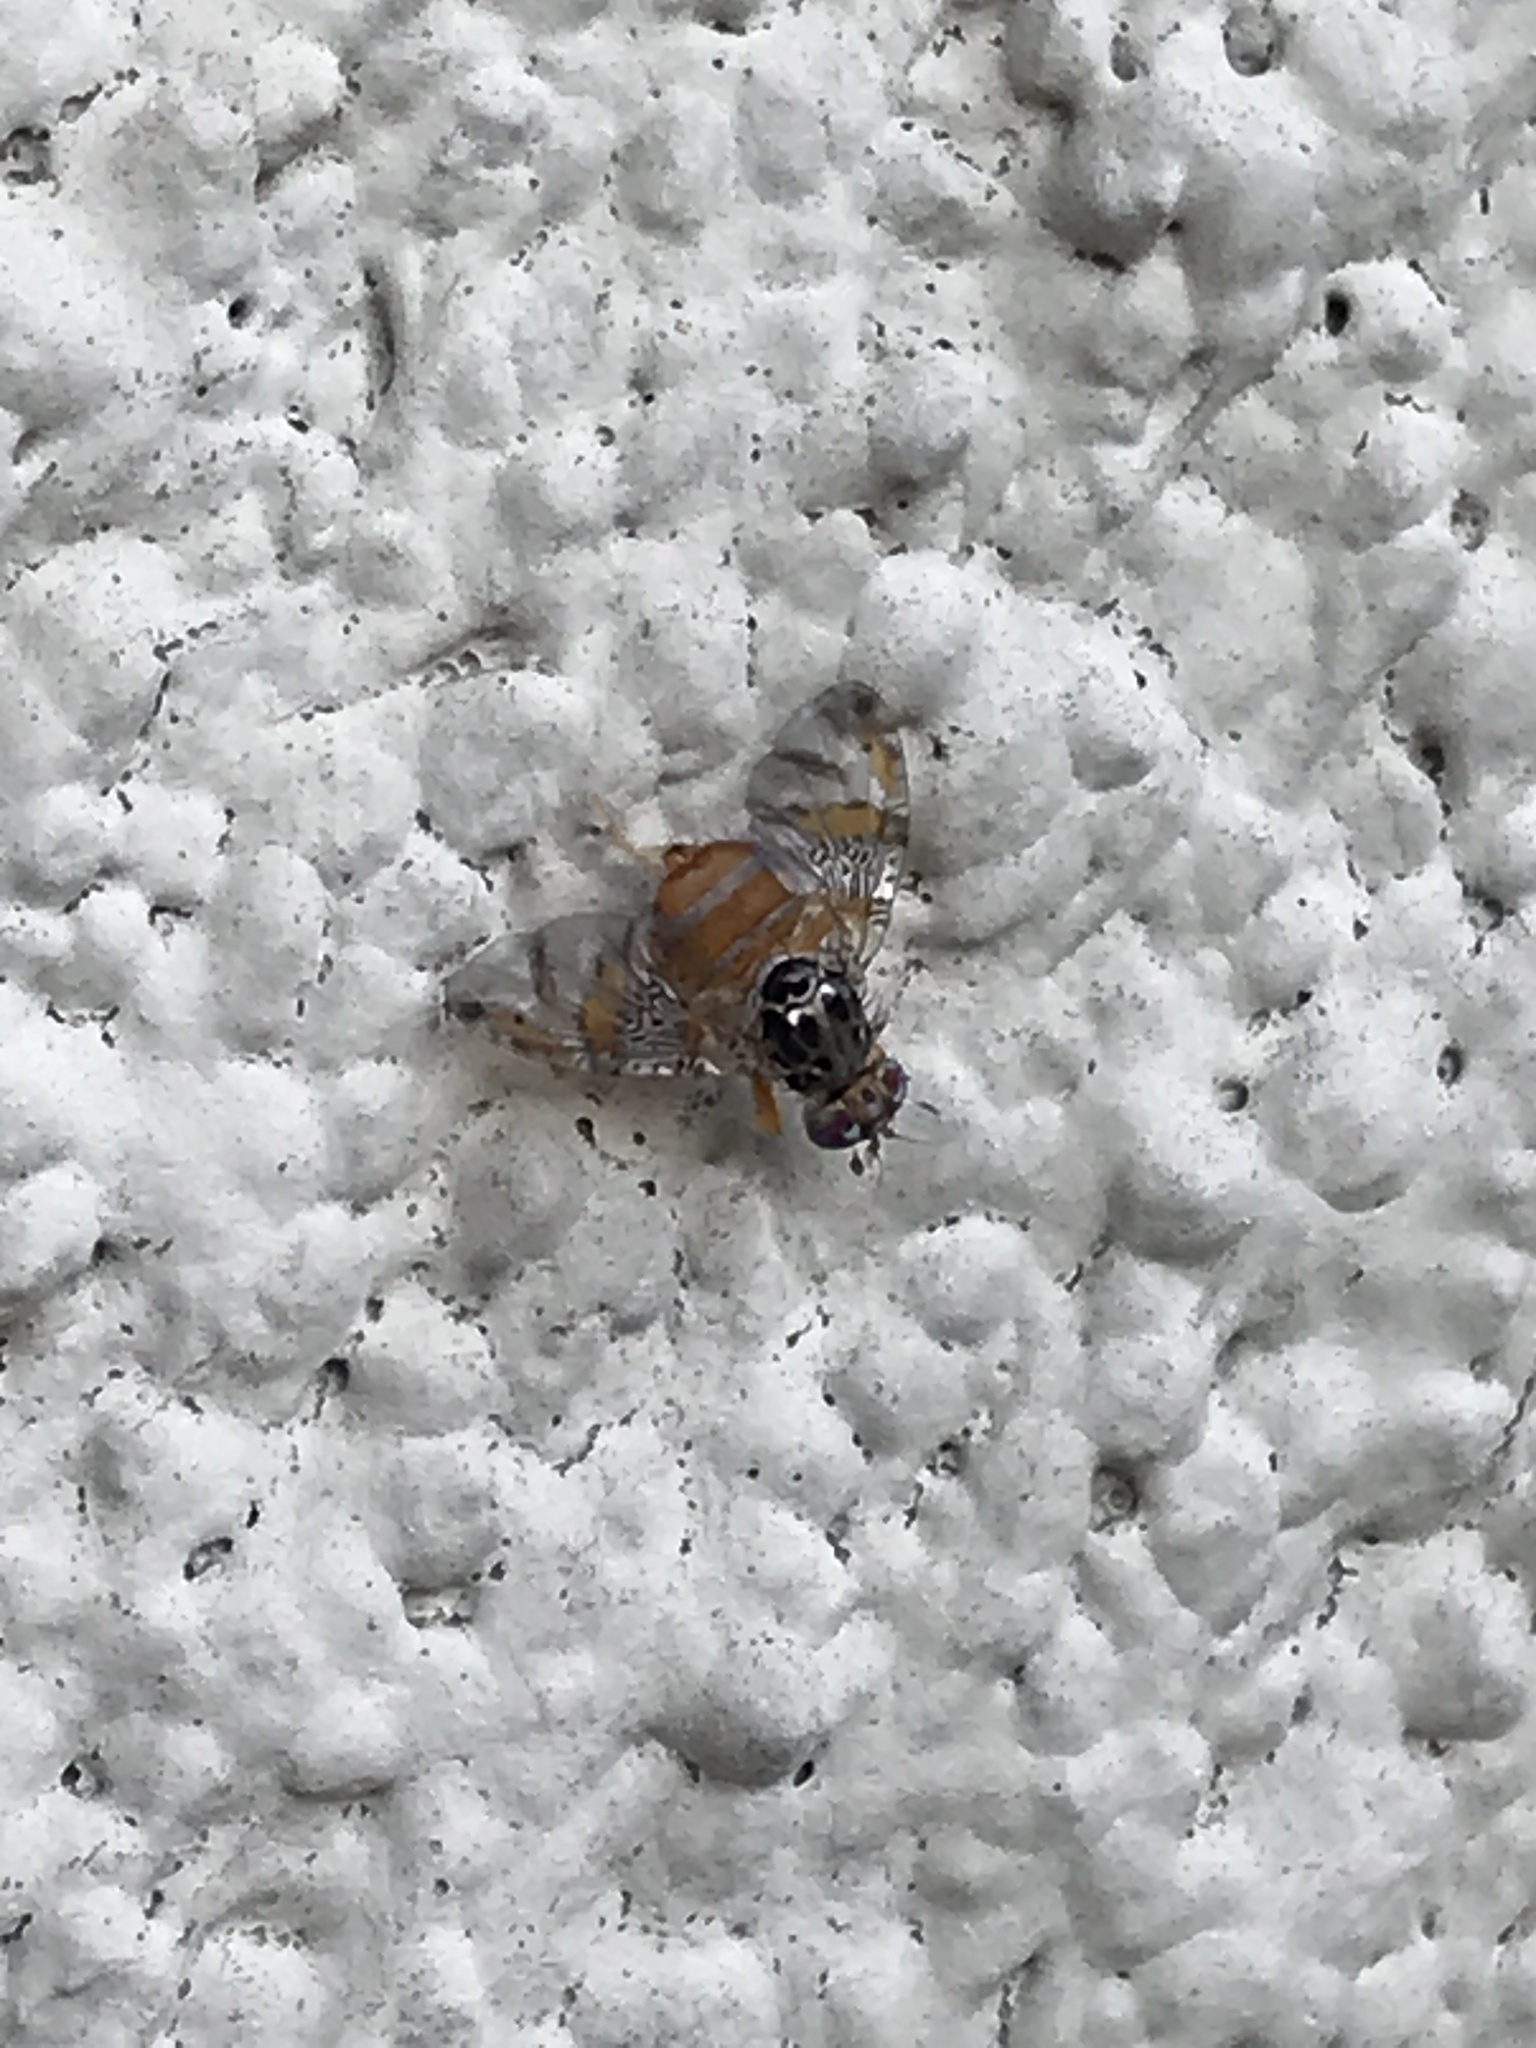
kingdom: Animalia
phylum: Arthropoda
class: Insecta
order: Diptera
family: Tephritidae
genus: Ceratitis
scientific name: Ceratitis capitata
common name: Mediterranean fruit fly
